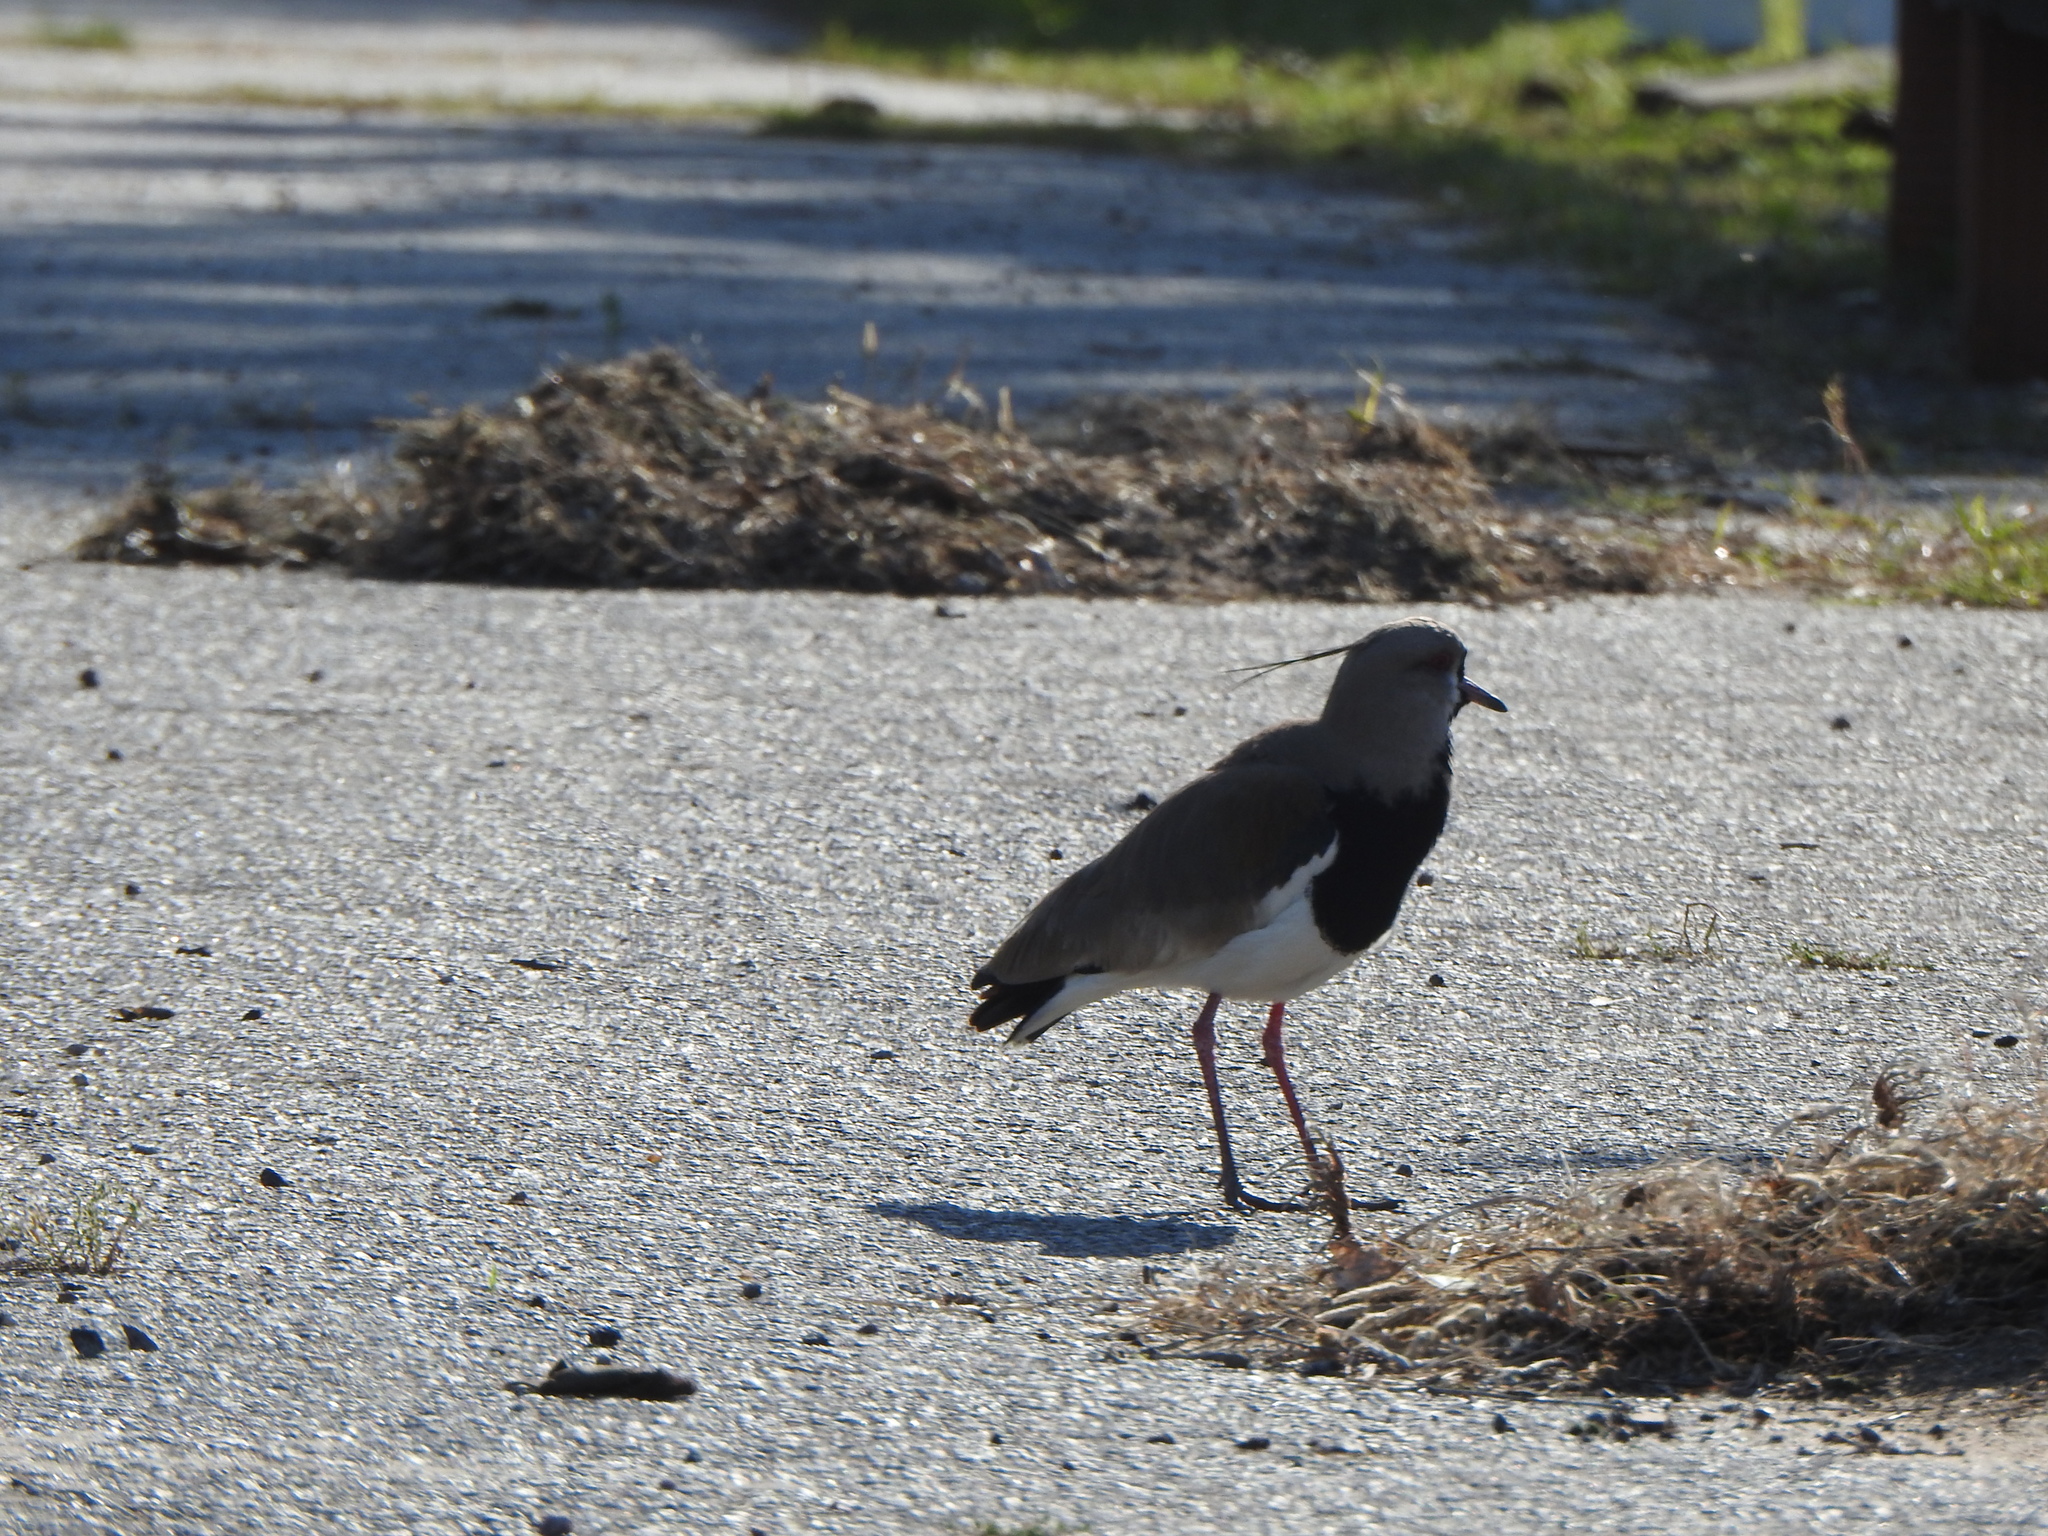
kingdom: Animalia
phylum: Chordata
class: Aves
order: Charadriiformes
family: Charadriidae
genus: Vanellus
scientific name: Vanellus chilensis
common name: Southern lapwing
